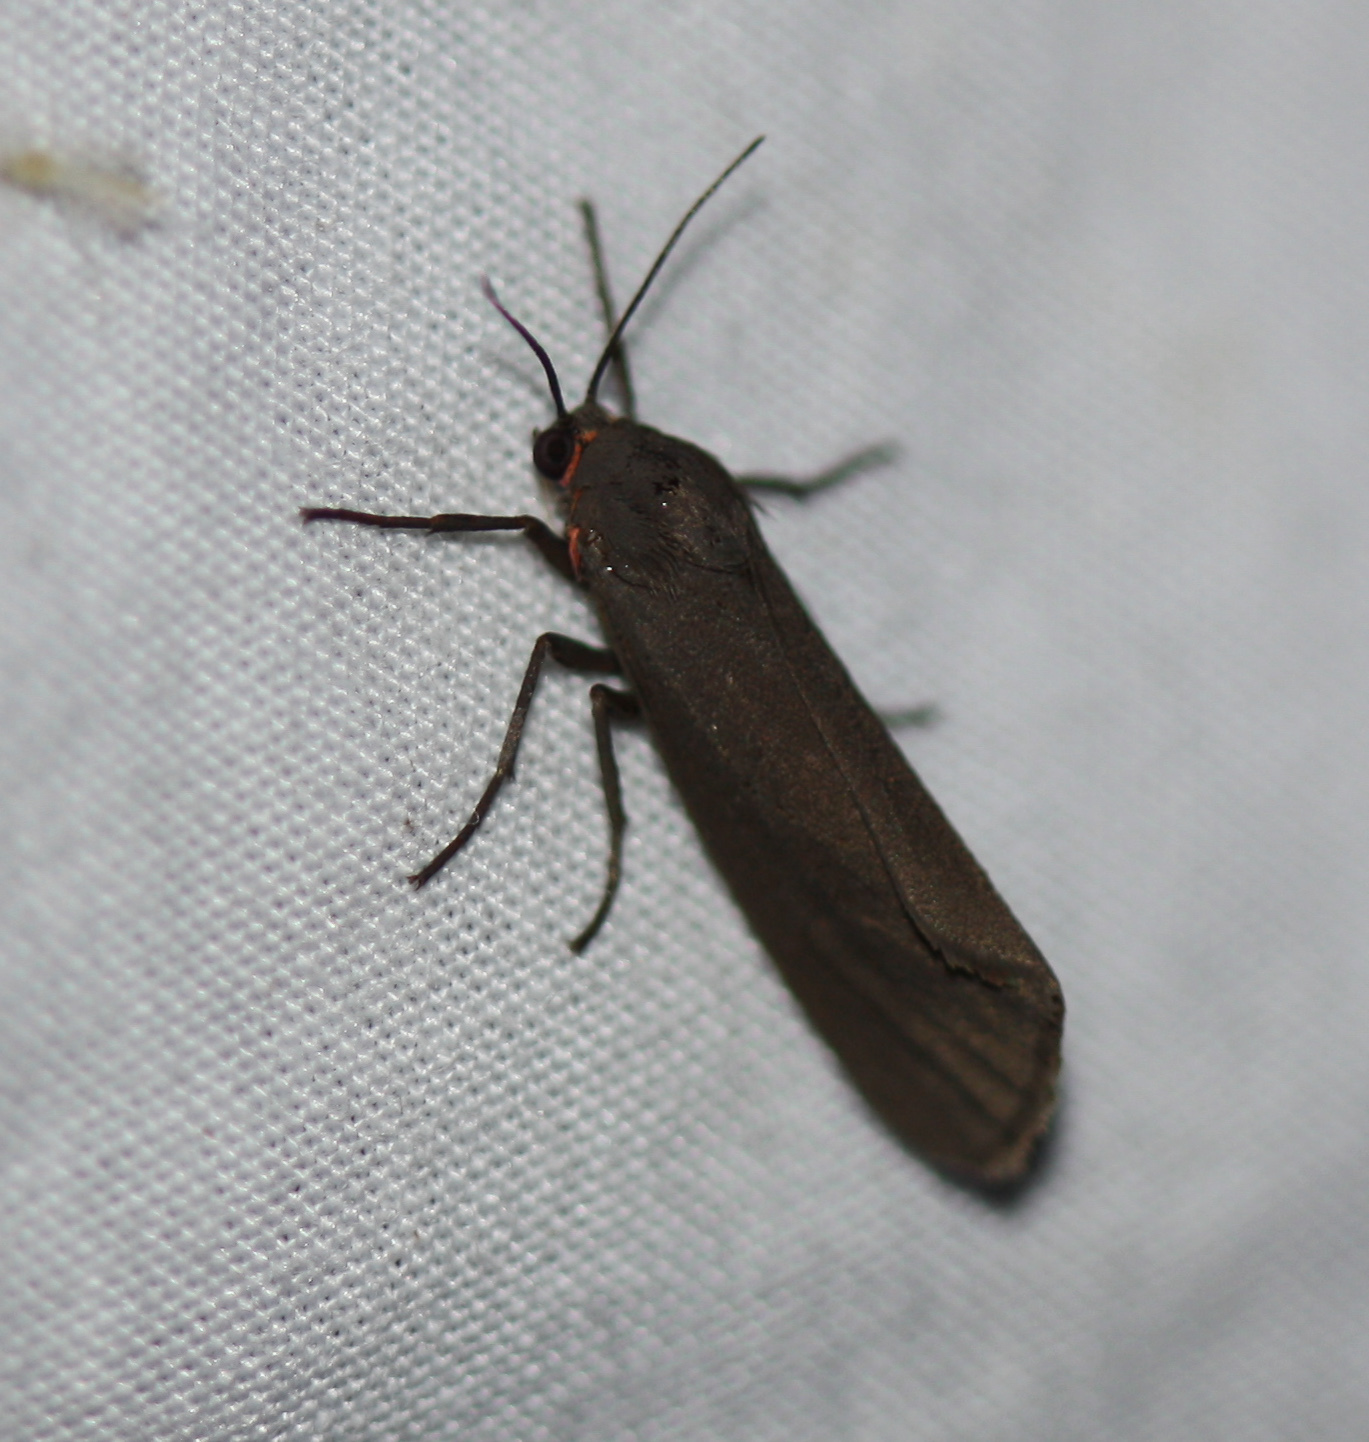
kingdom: Animalia
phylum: Arthropoda
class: Insecta
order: Lepidoptera
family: Erebidae
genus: Virbia
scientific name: Virbia laeta
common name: Joyful holomelina moth
